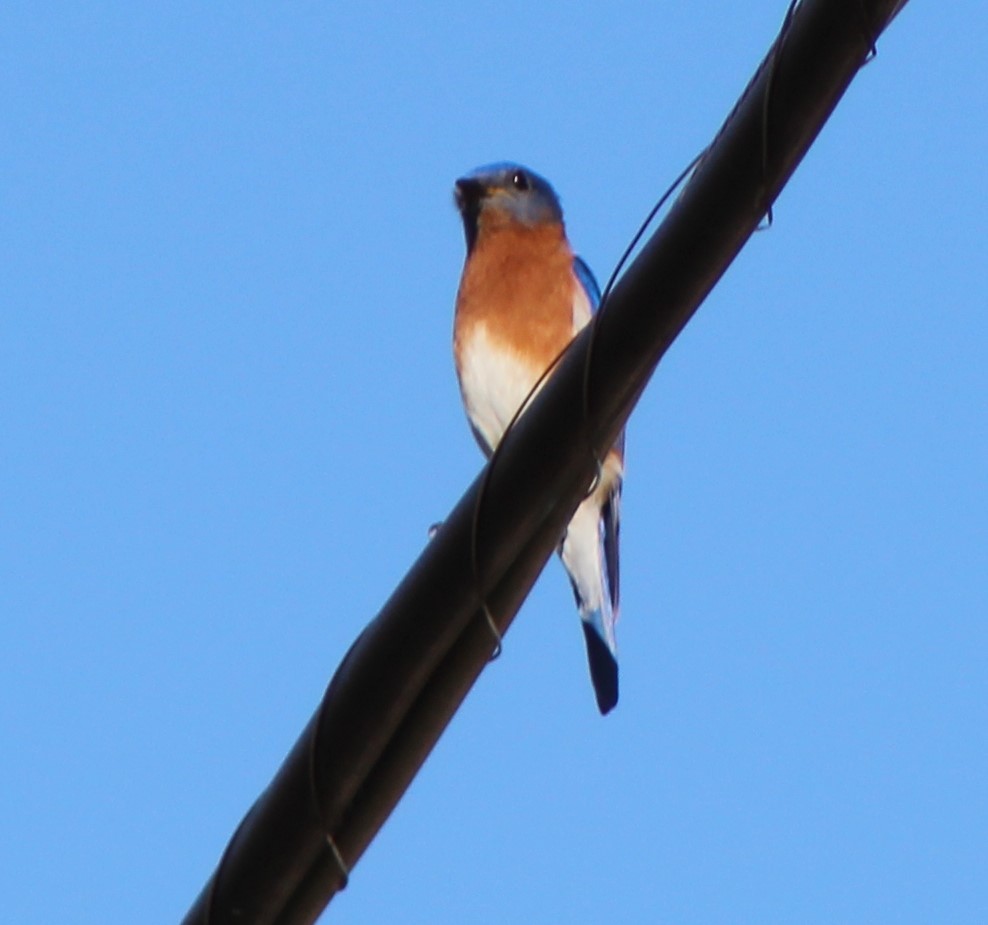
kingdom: Animalia
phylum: Chordata
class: Aves
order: Passeriformes
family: Turdidae
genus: Sialia
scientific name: Sialia sialis
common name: Eastern bluebird
